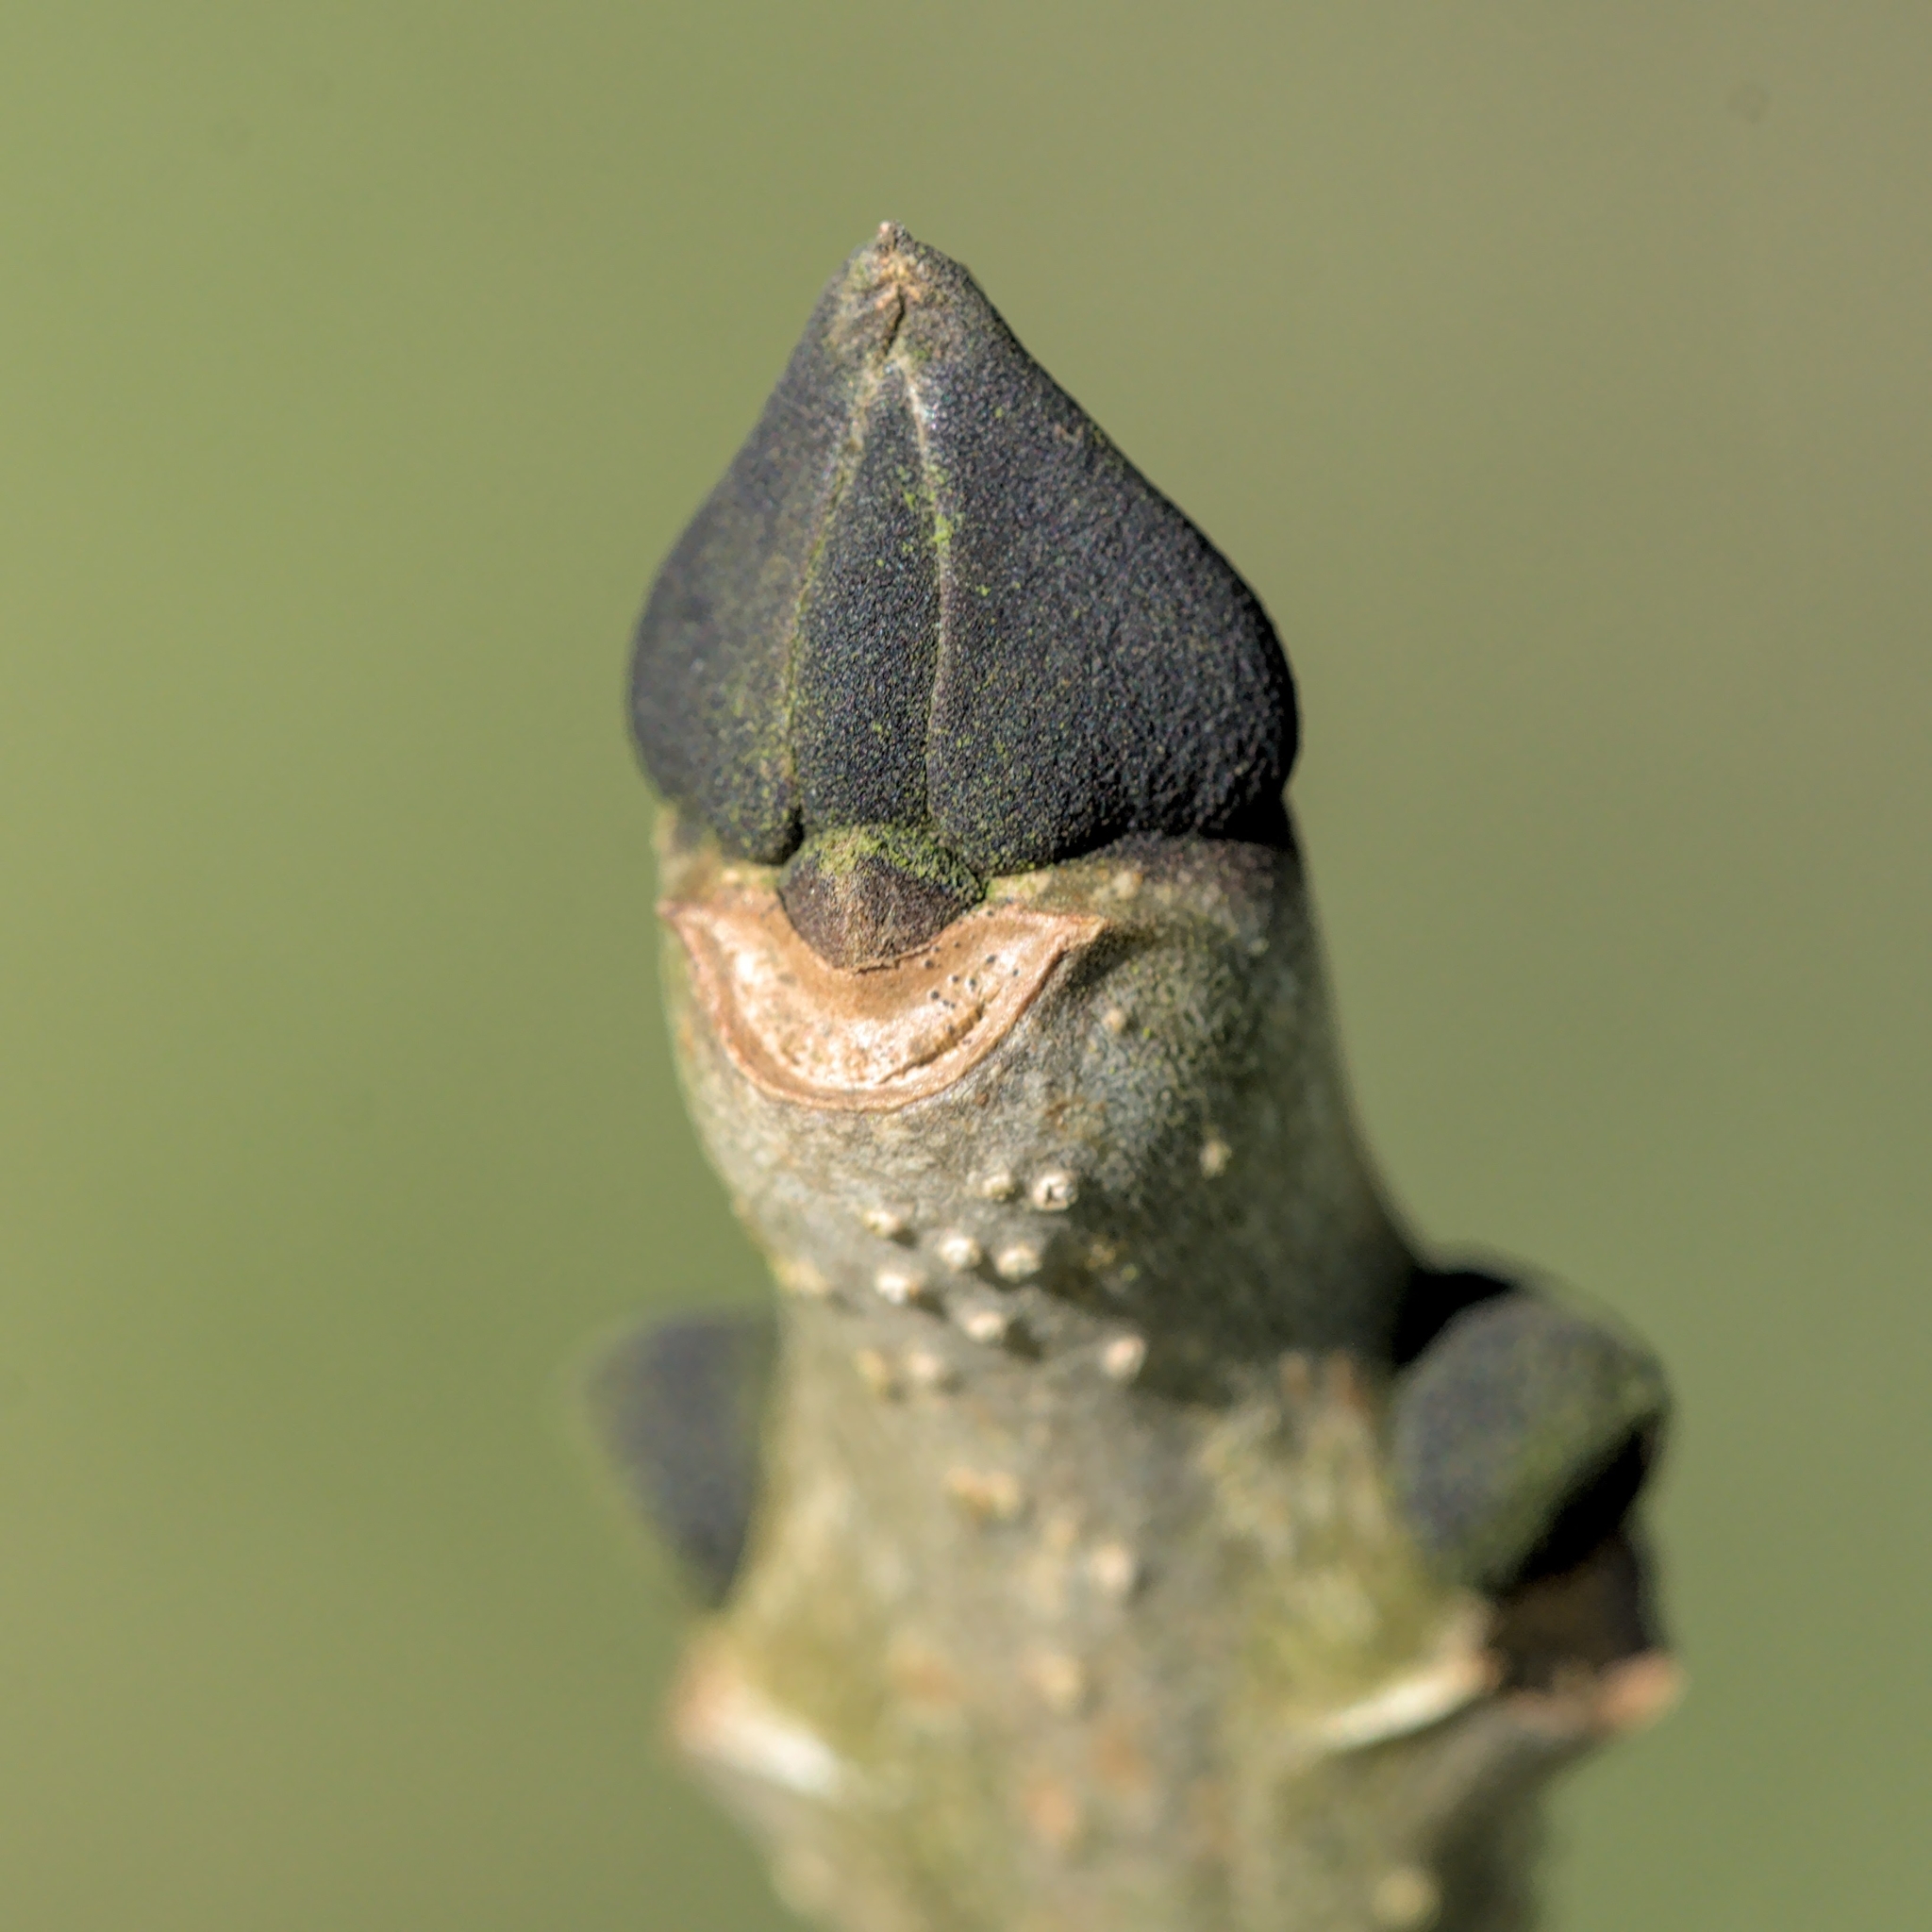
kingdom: Plantae
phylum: Tracheophyta
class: Magnoliopsida
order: Lamiales
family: Oleaceae
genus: Fraxinus
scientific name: Fraxinus excelsior
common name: European ash
